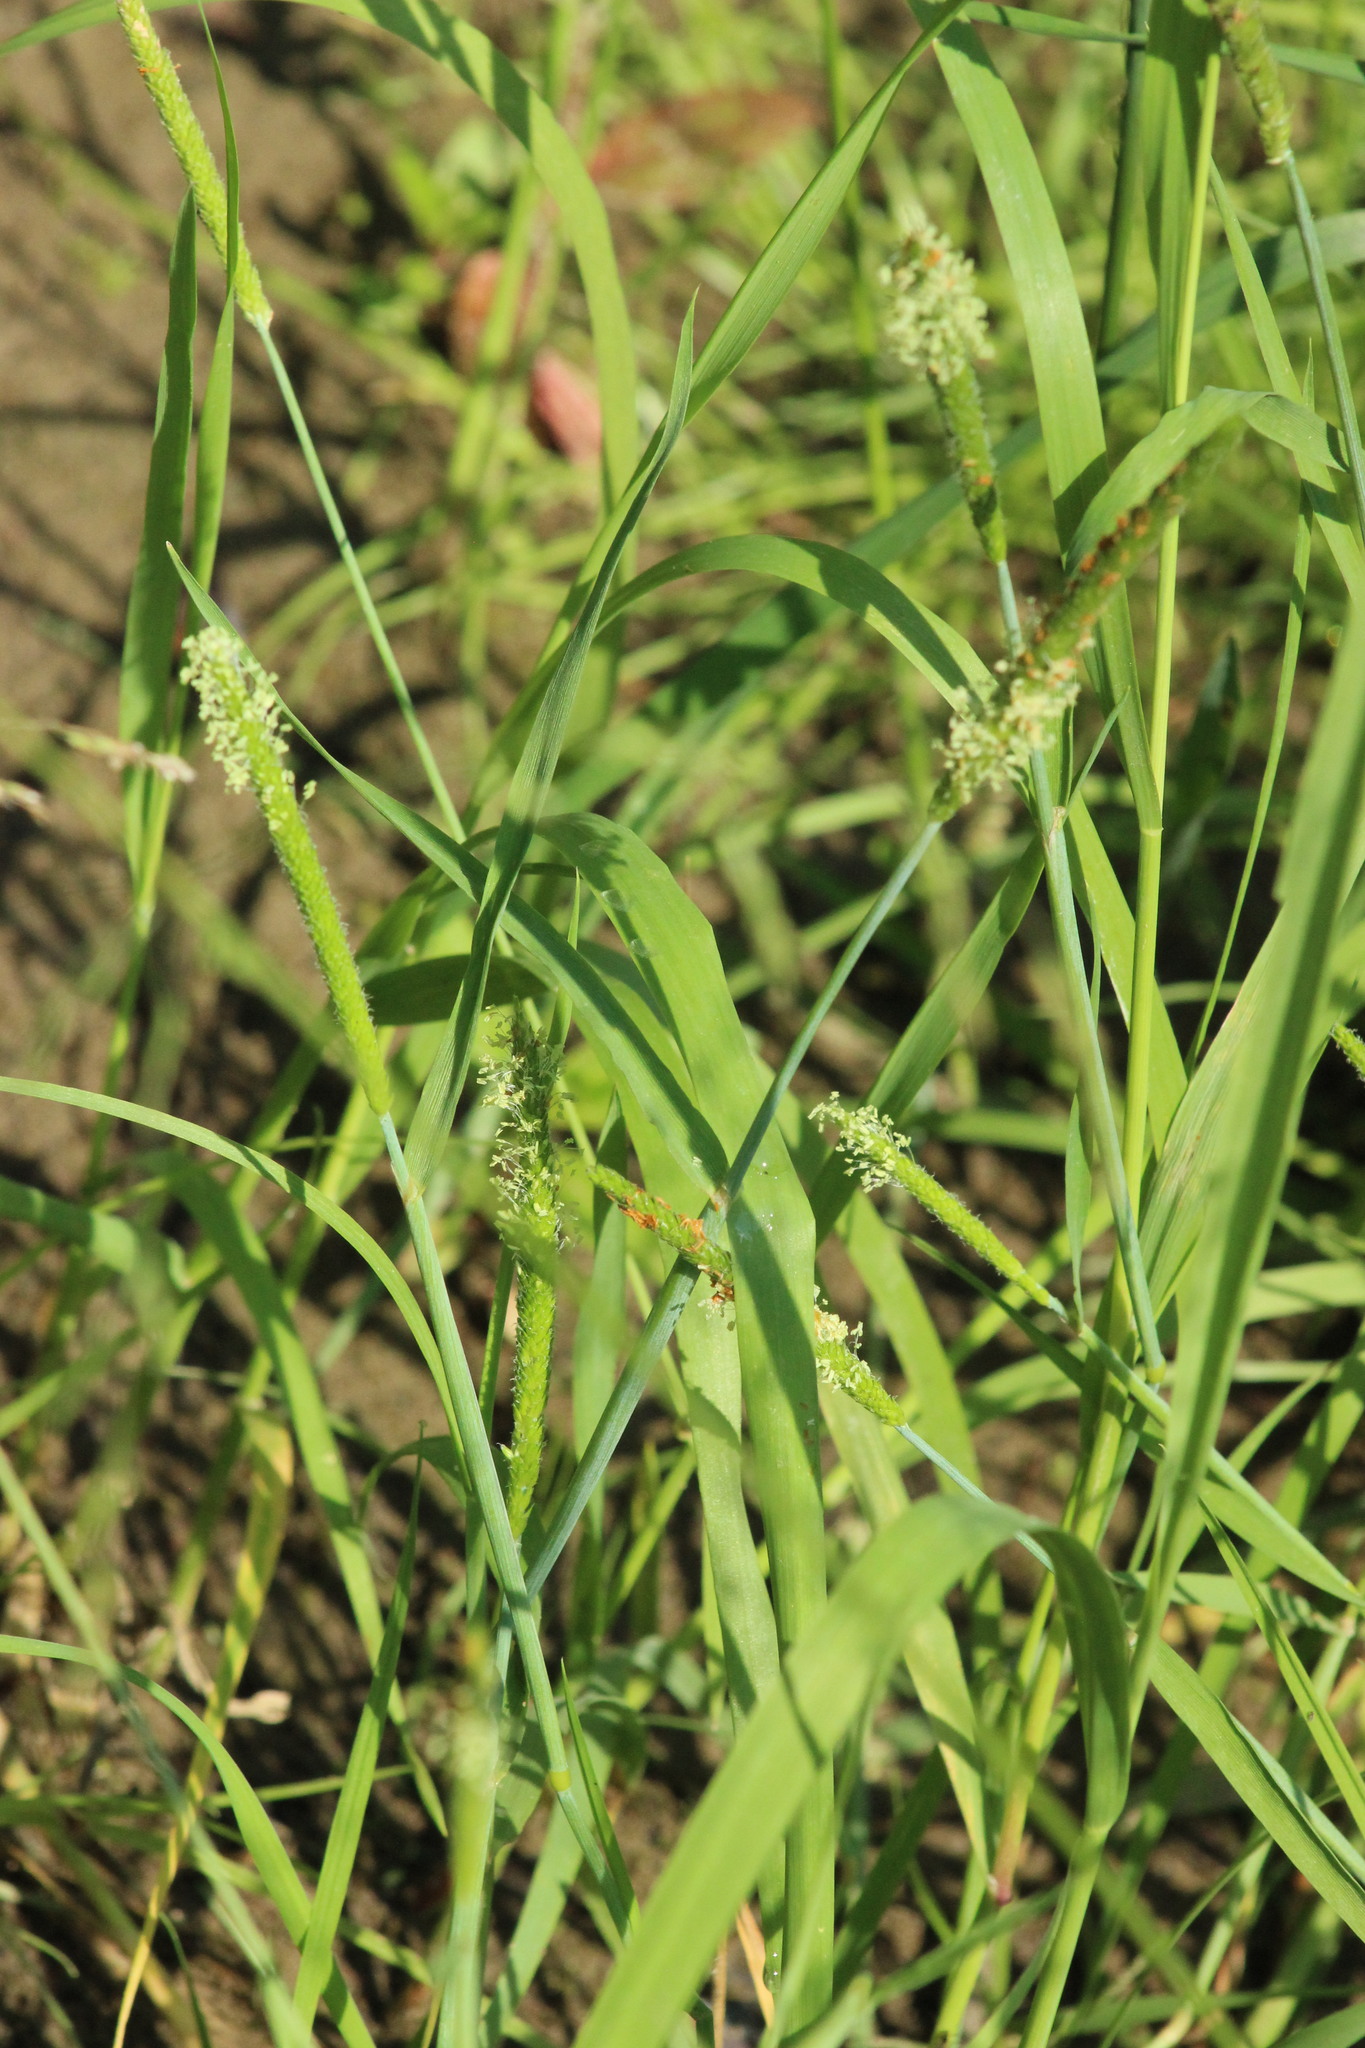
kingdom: Plantae
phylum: Tracheophyta
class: Liliopsida
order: Poales
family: Poaceae
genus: Alopecurus
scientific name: Alopecurus aequalis
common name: Orange foxtail
